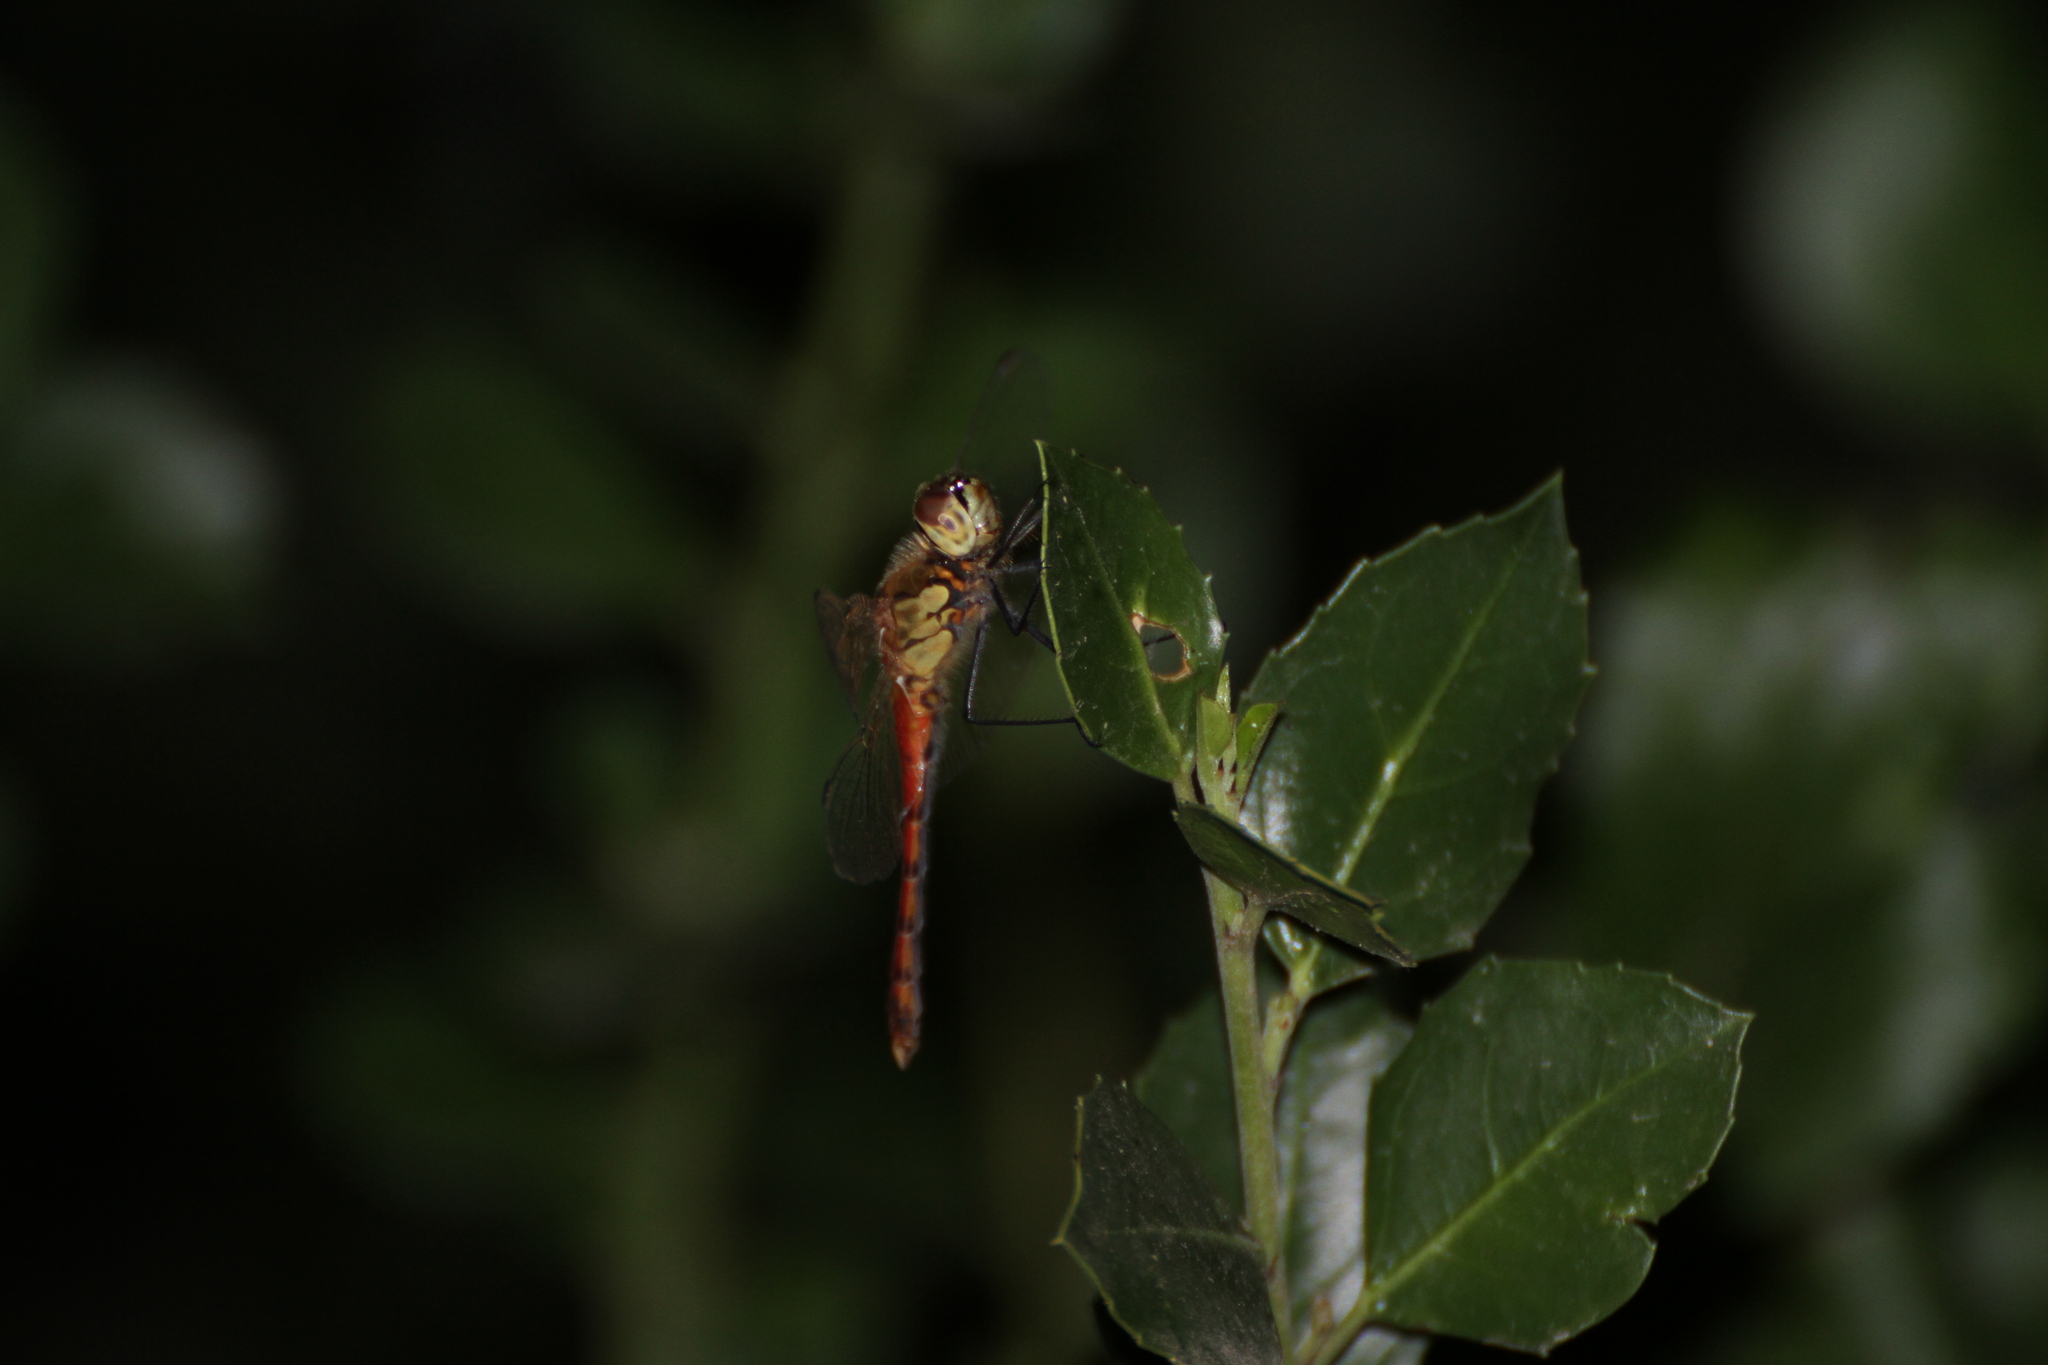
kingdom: Animalia
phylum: Arthropoda
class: Insecta
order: Odonata
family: Libellulidae
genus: Sympetrum
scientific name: Sympetrum depressiusculum
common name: Spotted darter
